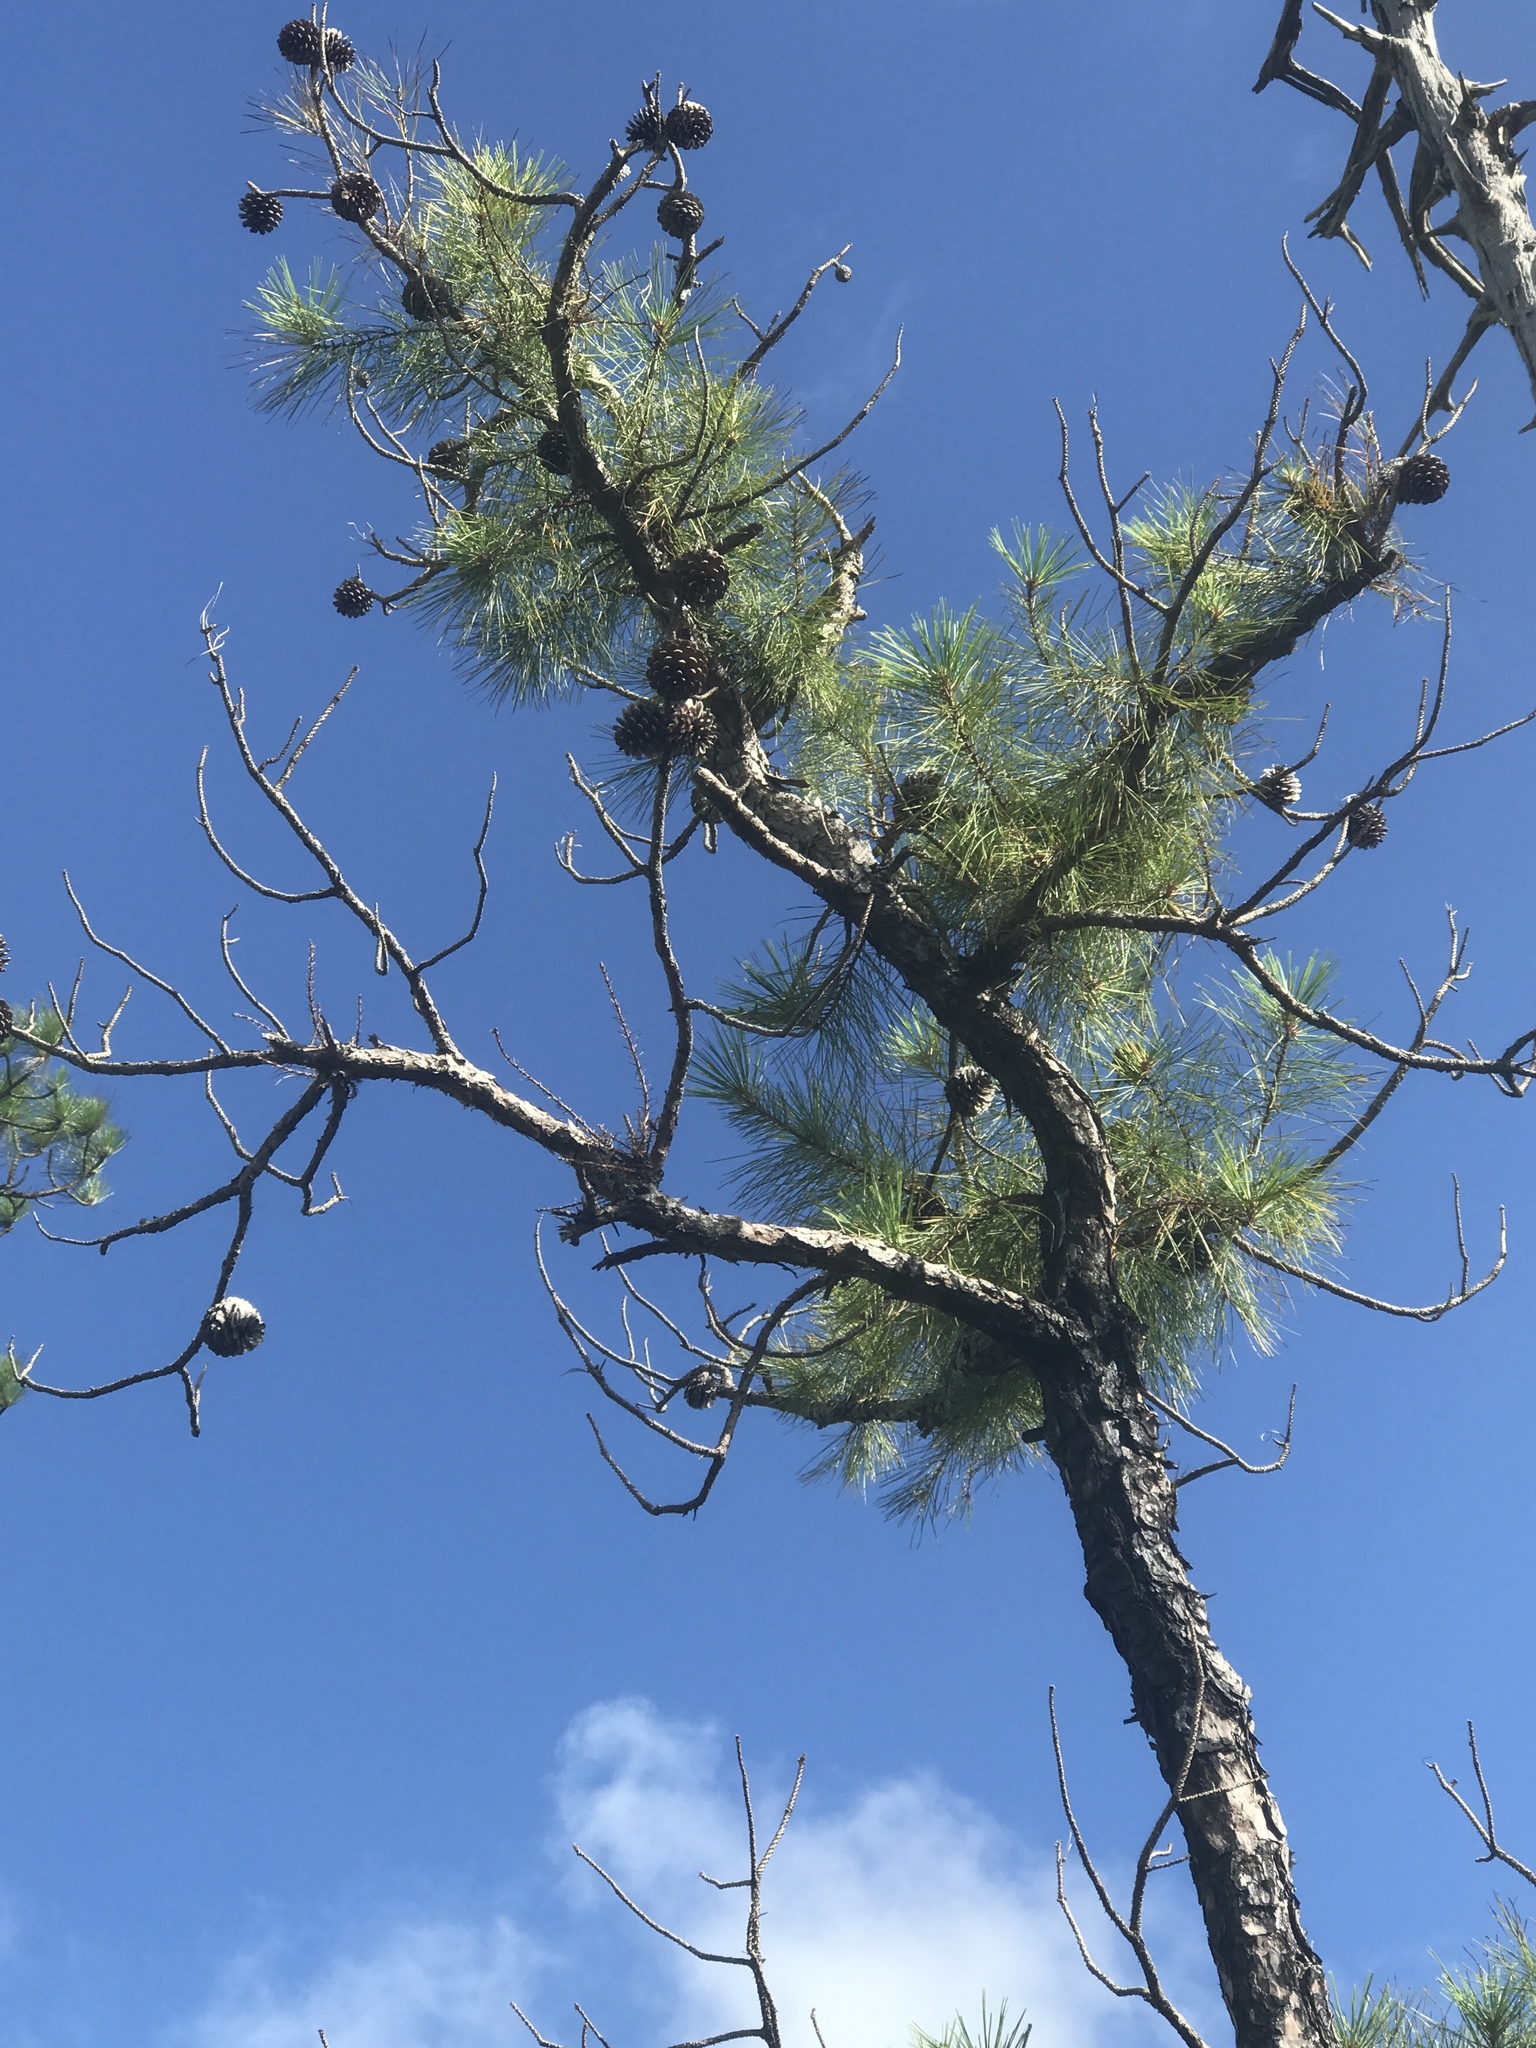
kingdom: Plantae
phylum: Tracheophyta
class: Pinopsida
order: Pinales
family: Pinaceae
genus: Pinus
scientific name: Pinus serotina
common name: Marsh pine
